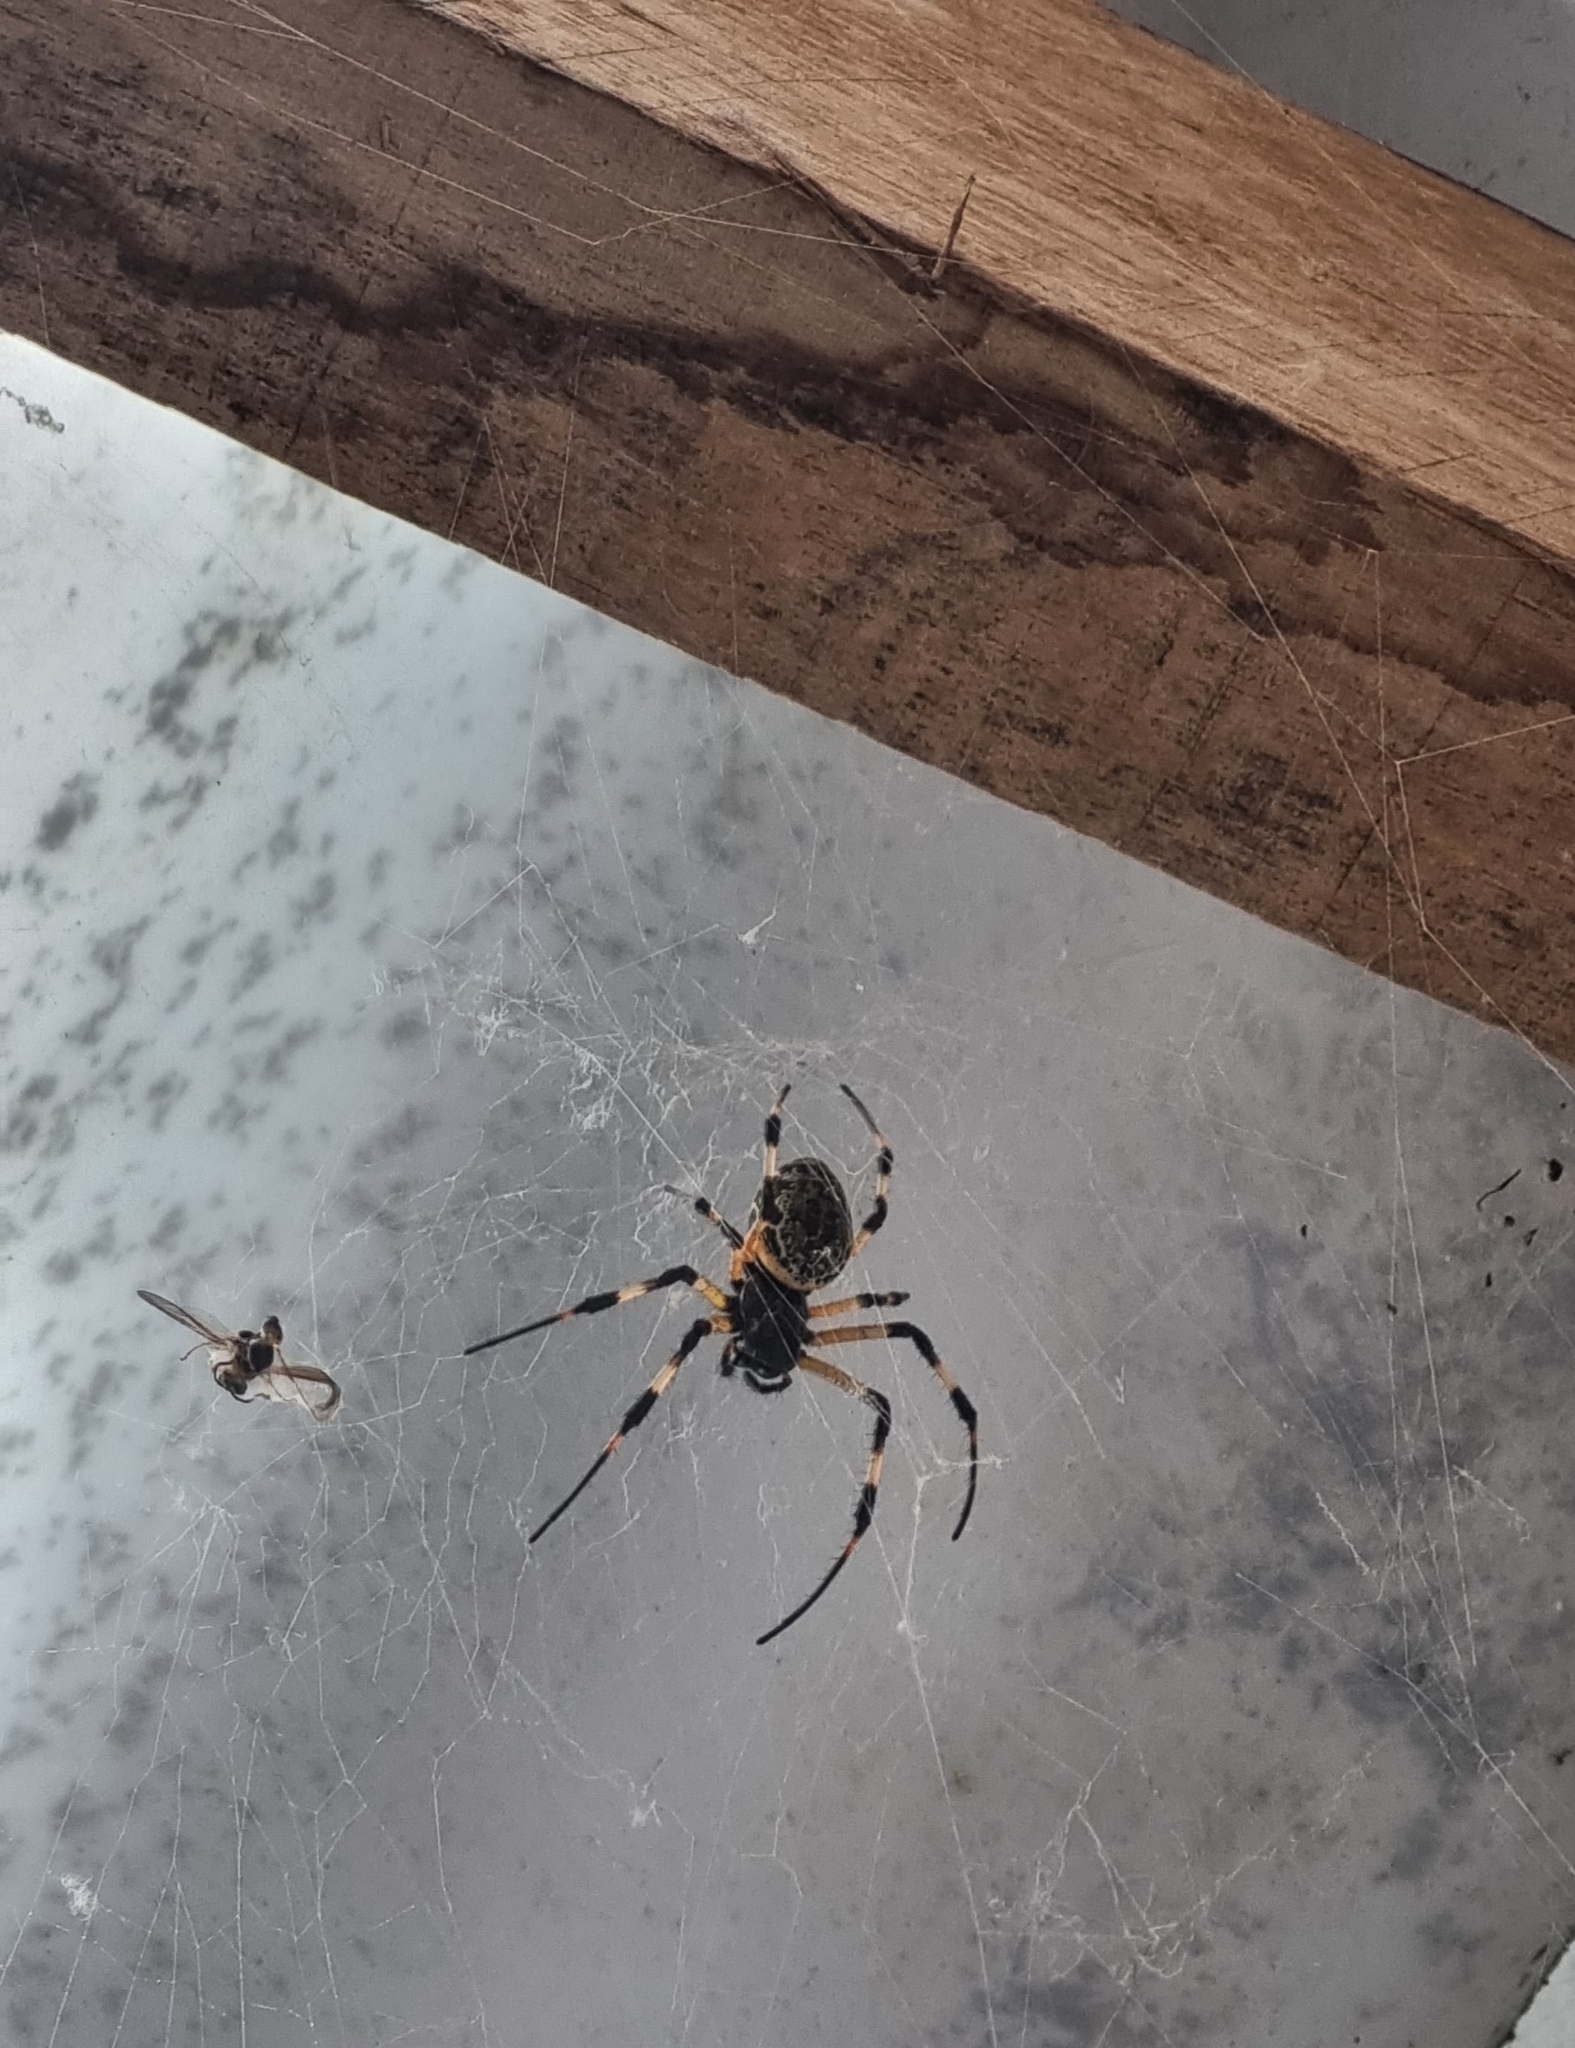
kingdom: Animalia
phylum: Arthropoda
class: Arachnida
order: Araneae
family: Araneidae
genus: Nephilingis
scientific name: Nephilingis cruentata
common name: African hermit spider
